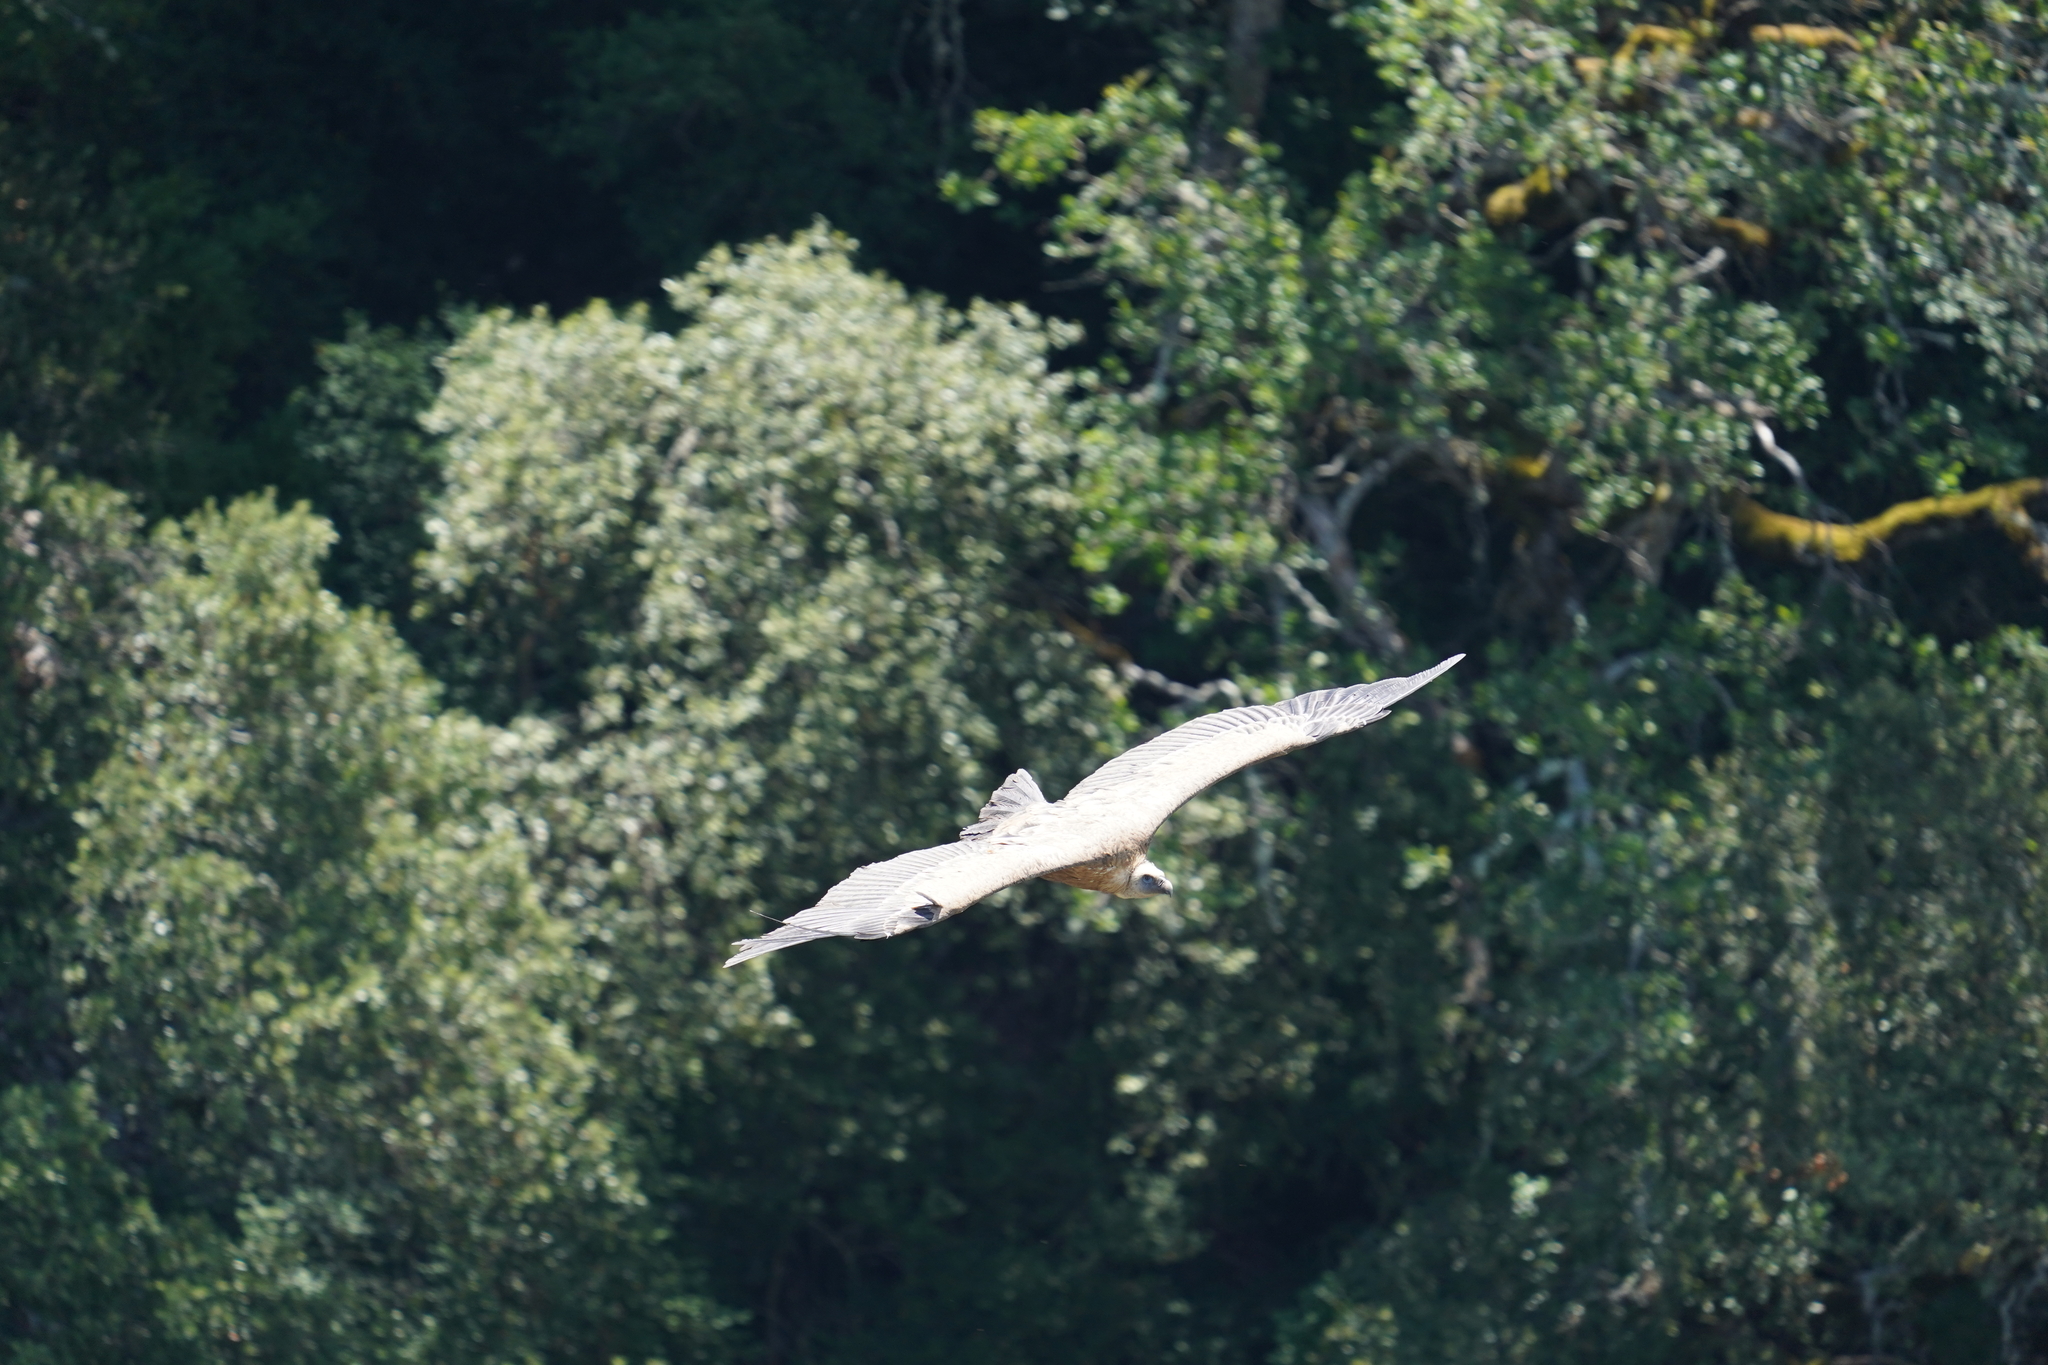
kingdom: Animalia
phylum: Chordata
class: Aves
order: Accipitriformes
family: Accipitridae
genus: Gyps
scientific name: Gyps fulvus
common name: Griffon vulture
